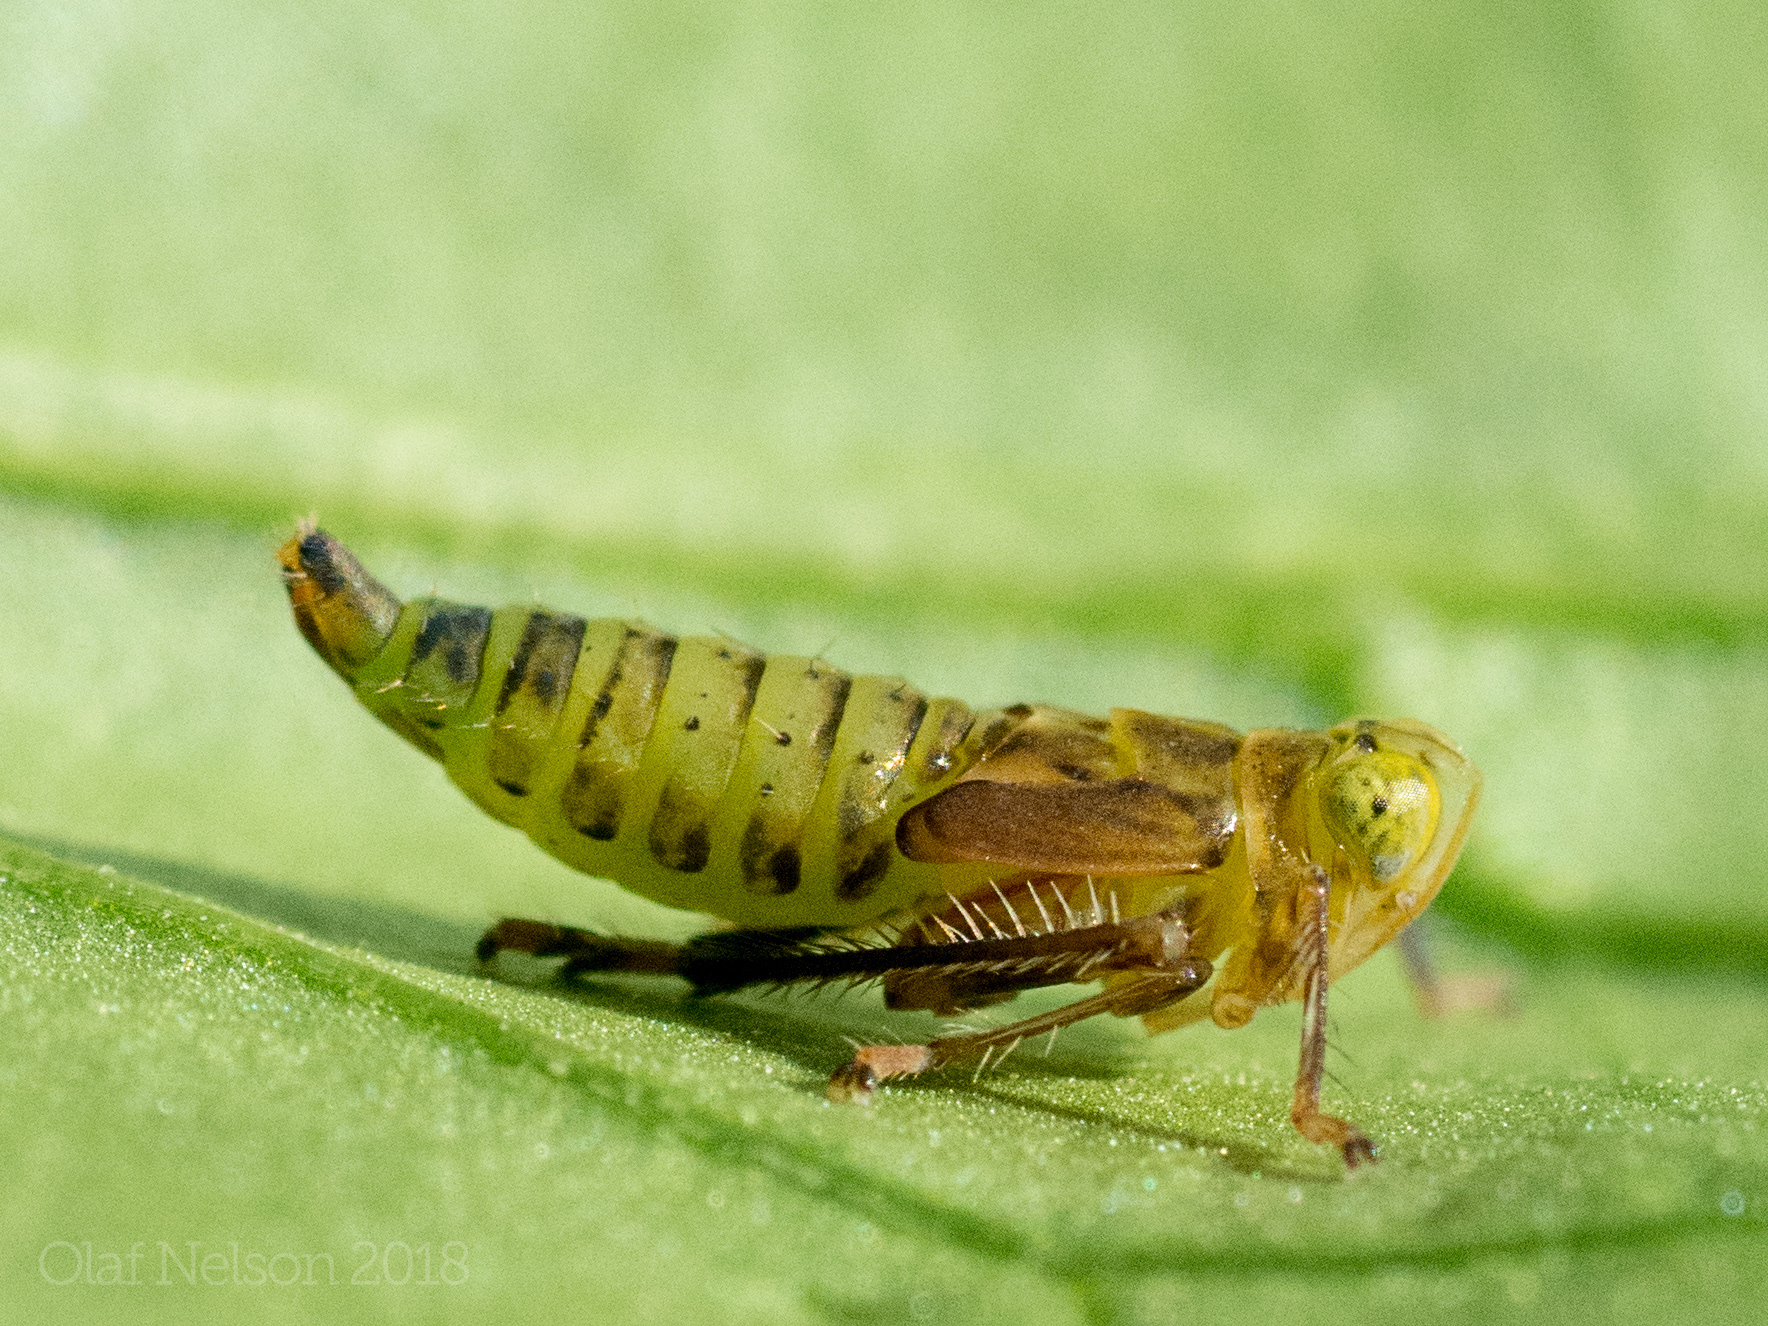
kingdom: Animalia
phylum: Arthropoda
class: Insecta
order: Hemiptera
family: Cicadellidae
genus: Jikradia
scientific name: Jikradia olitoria
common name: Coppery leafhopper
